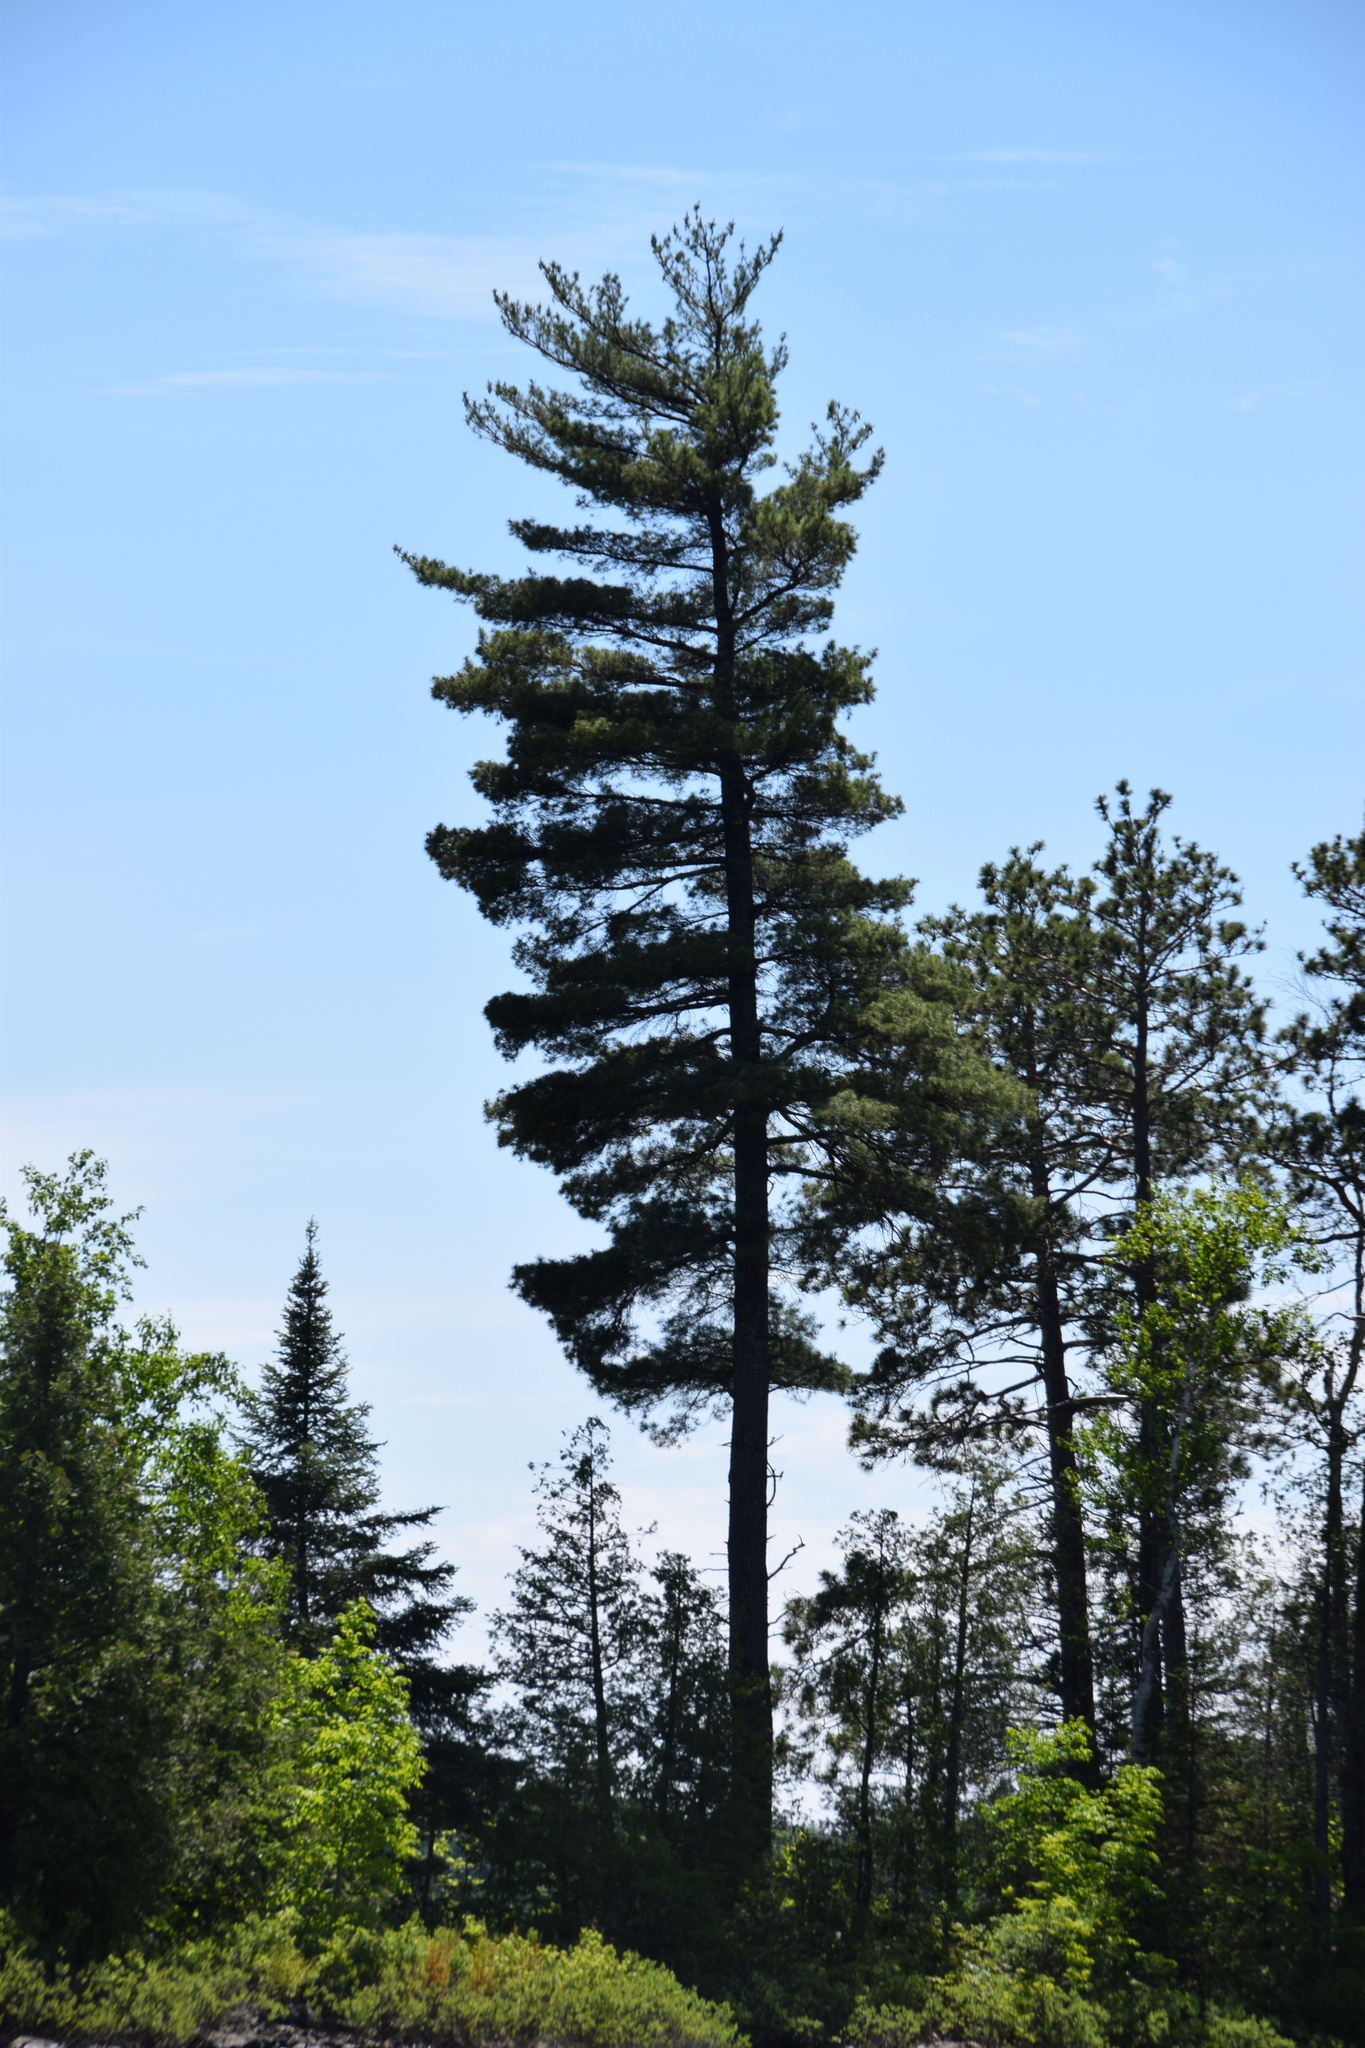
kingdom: Plantae
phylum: Tracheophyta
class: Pinopsida
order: Pinales
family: Pinaceae
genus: Pinus
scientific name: Pinus strobus
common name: Weymouth pine
